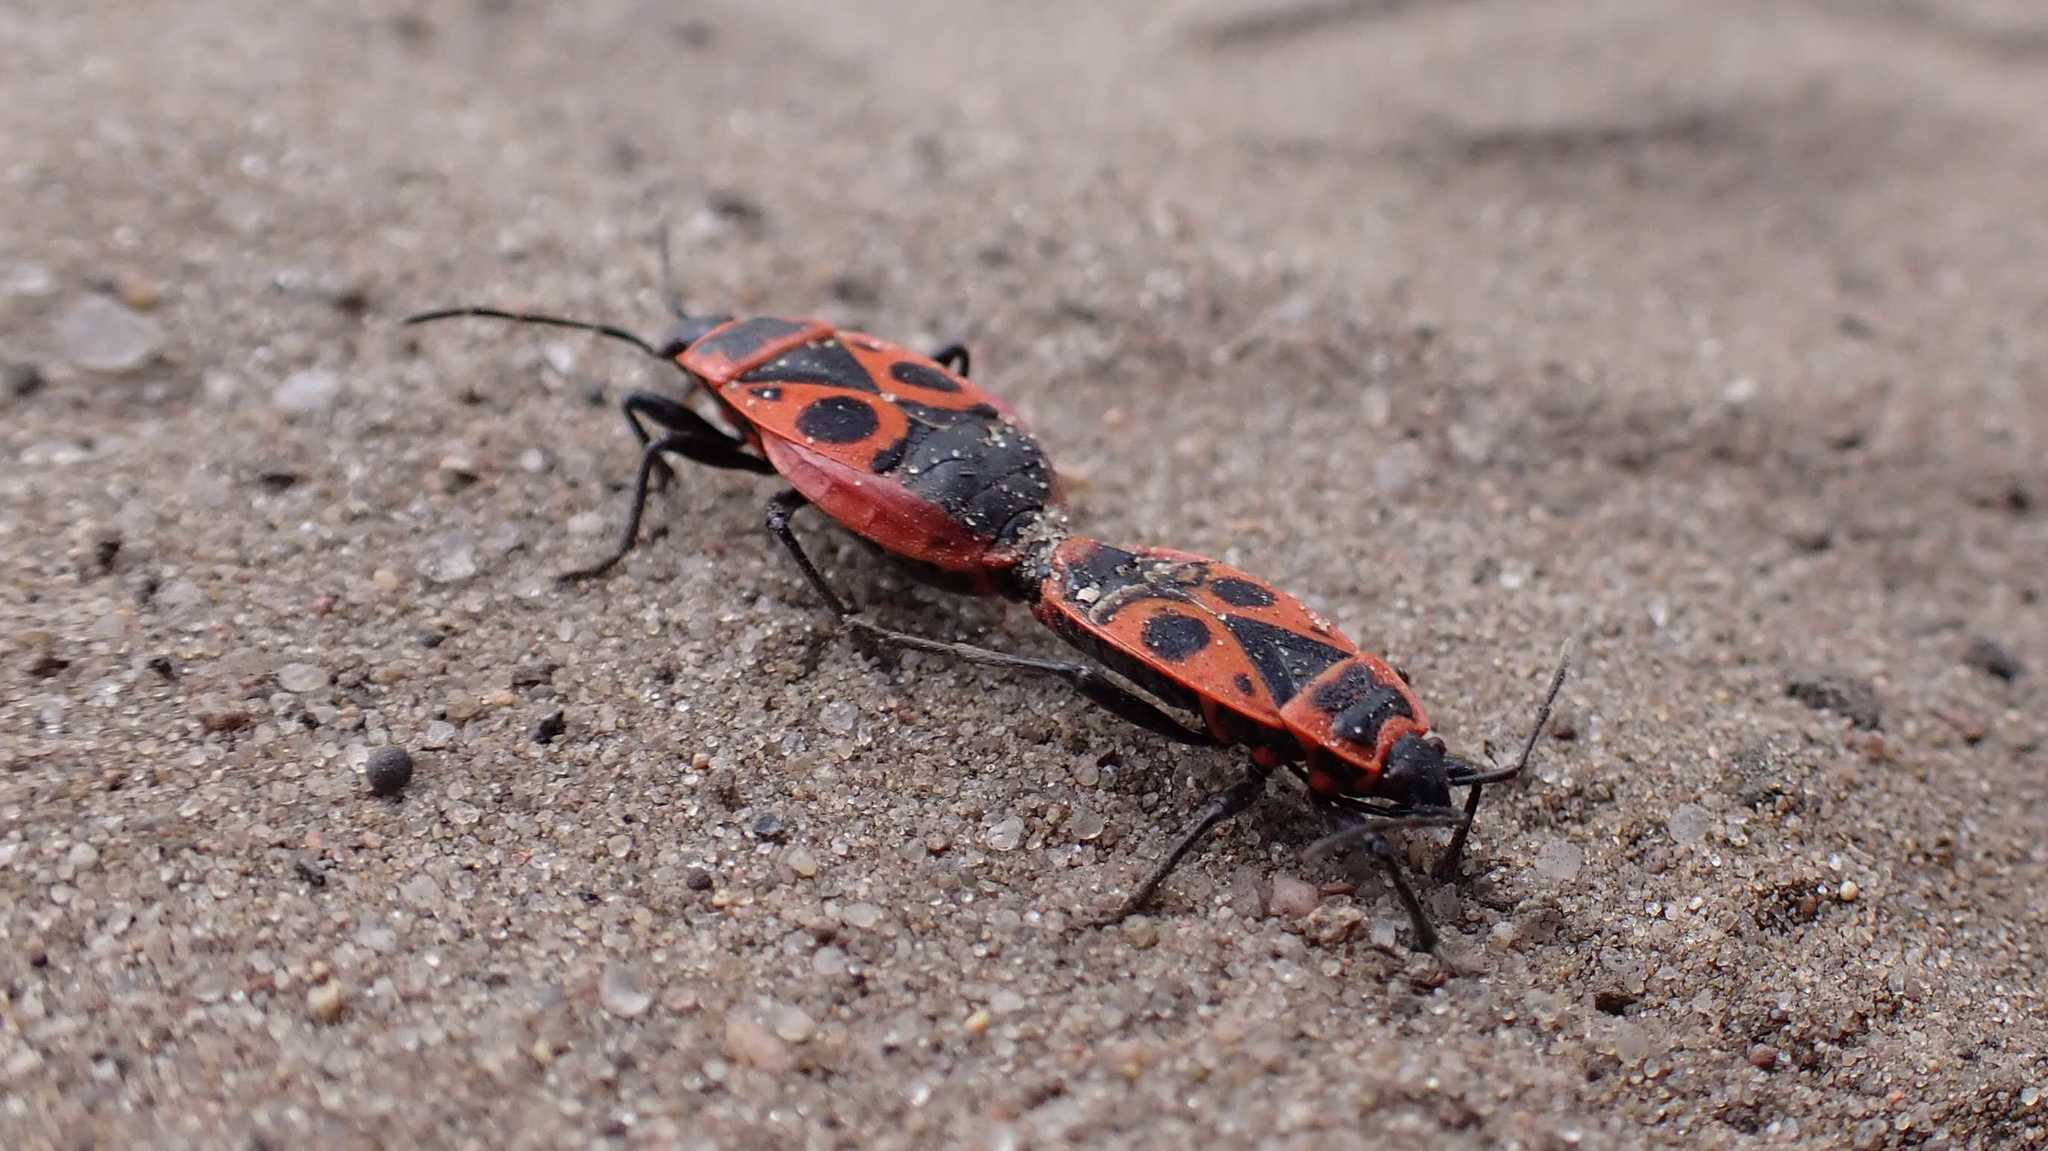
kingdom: Animalia
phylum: Arthropoda
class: Insecta
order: Hemiptera
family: Pyrrhocoridae
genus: Pyrrhocoris
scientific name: Pyrrhocoris apterus
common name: Firebug
